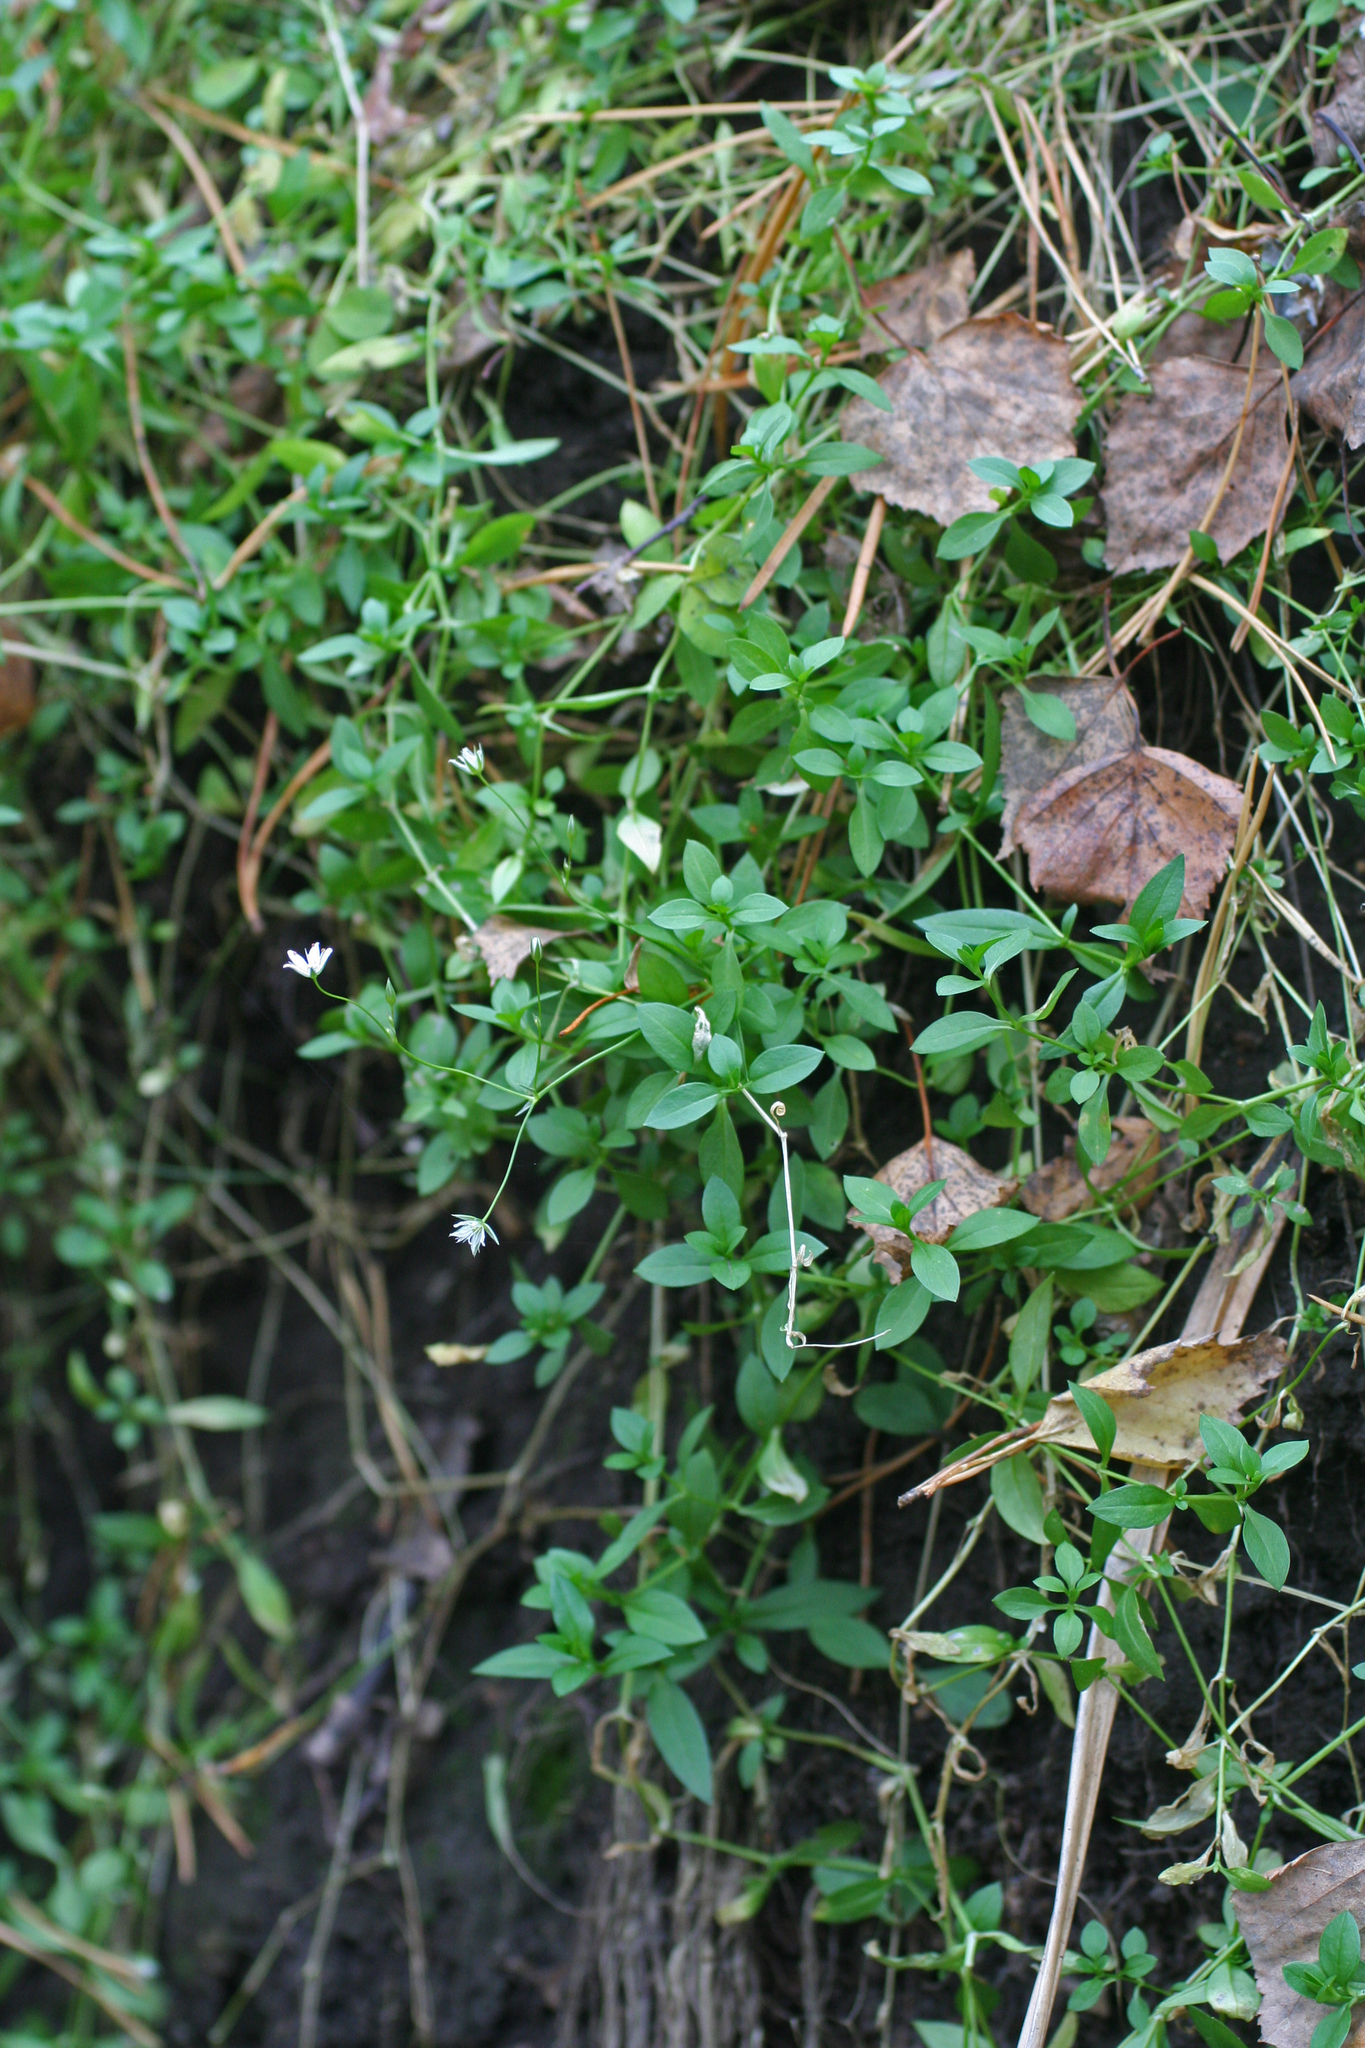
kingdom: Plantae
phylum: Tracheophyta
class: Magnoliopsida
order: Caryophyllales
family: Caryophyllaceae
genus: Stellaria
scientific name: Stellaria crassifolia
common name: Fleshy starwort
